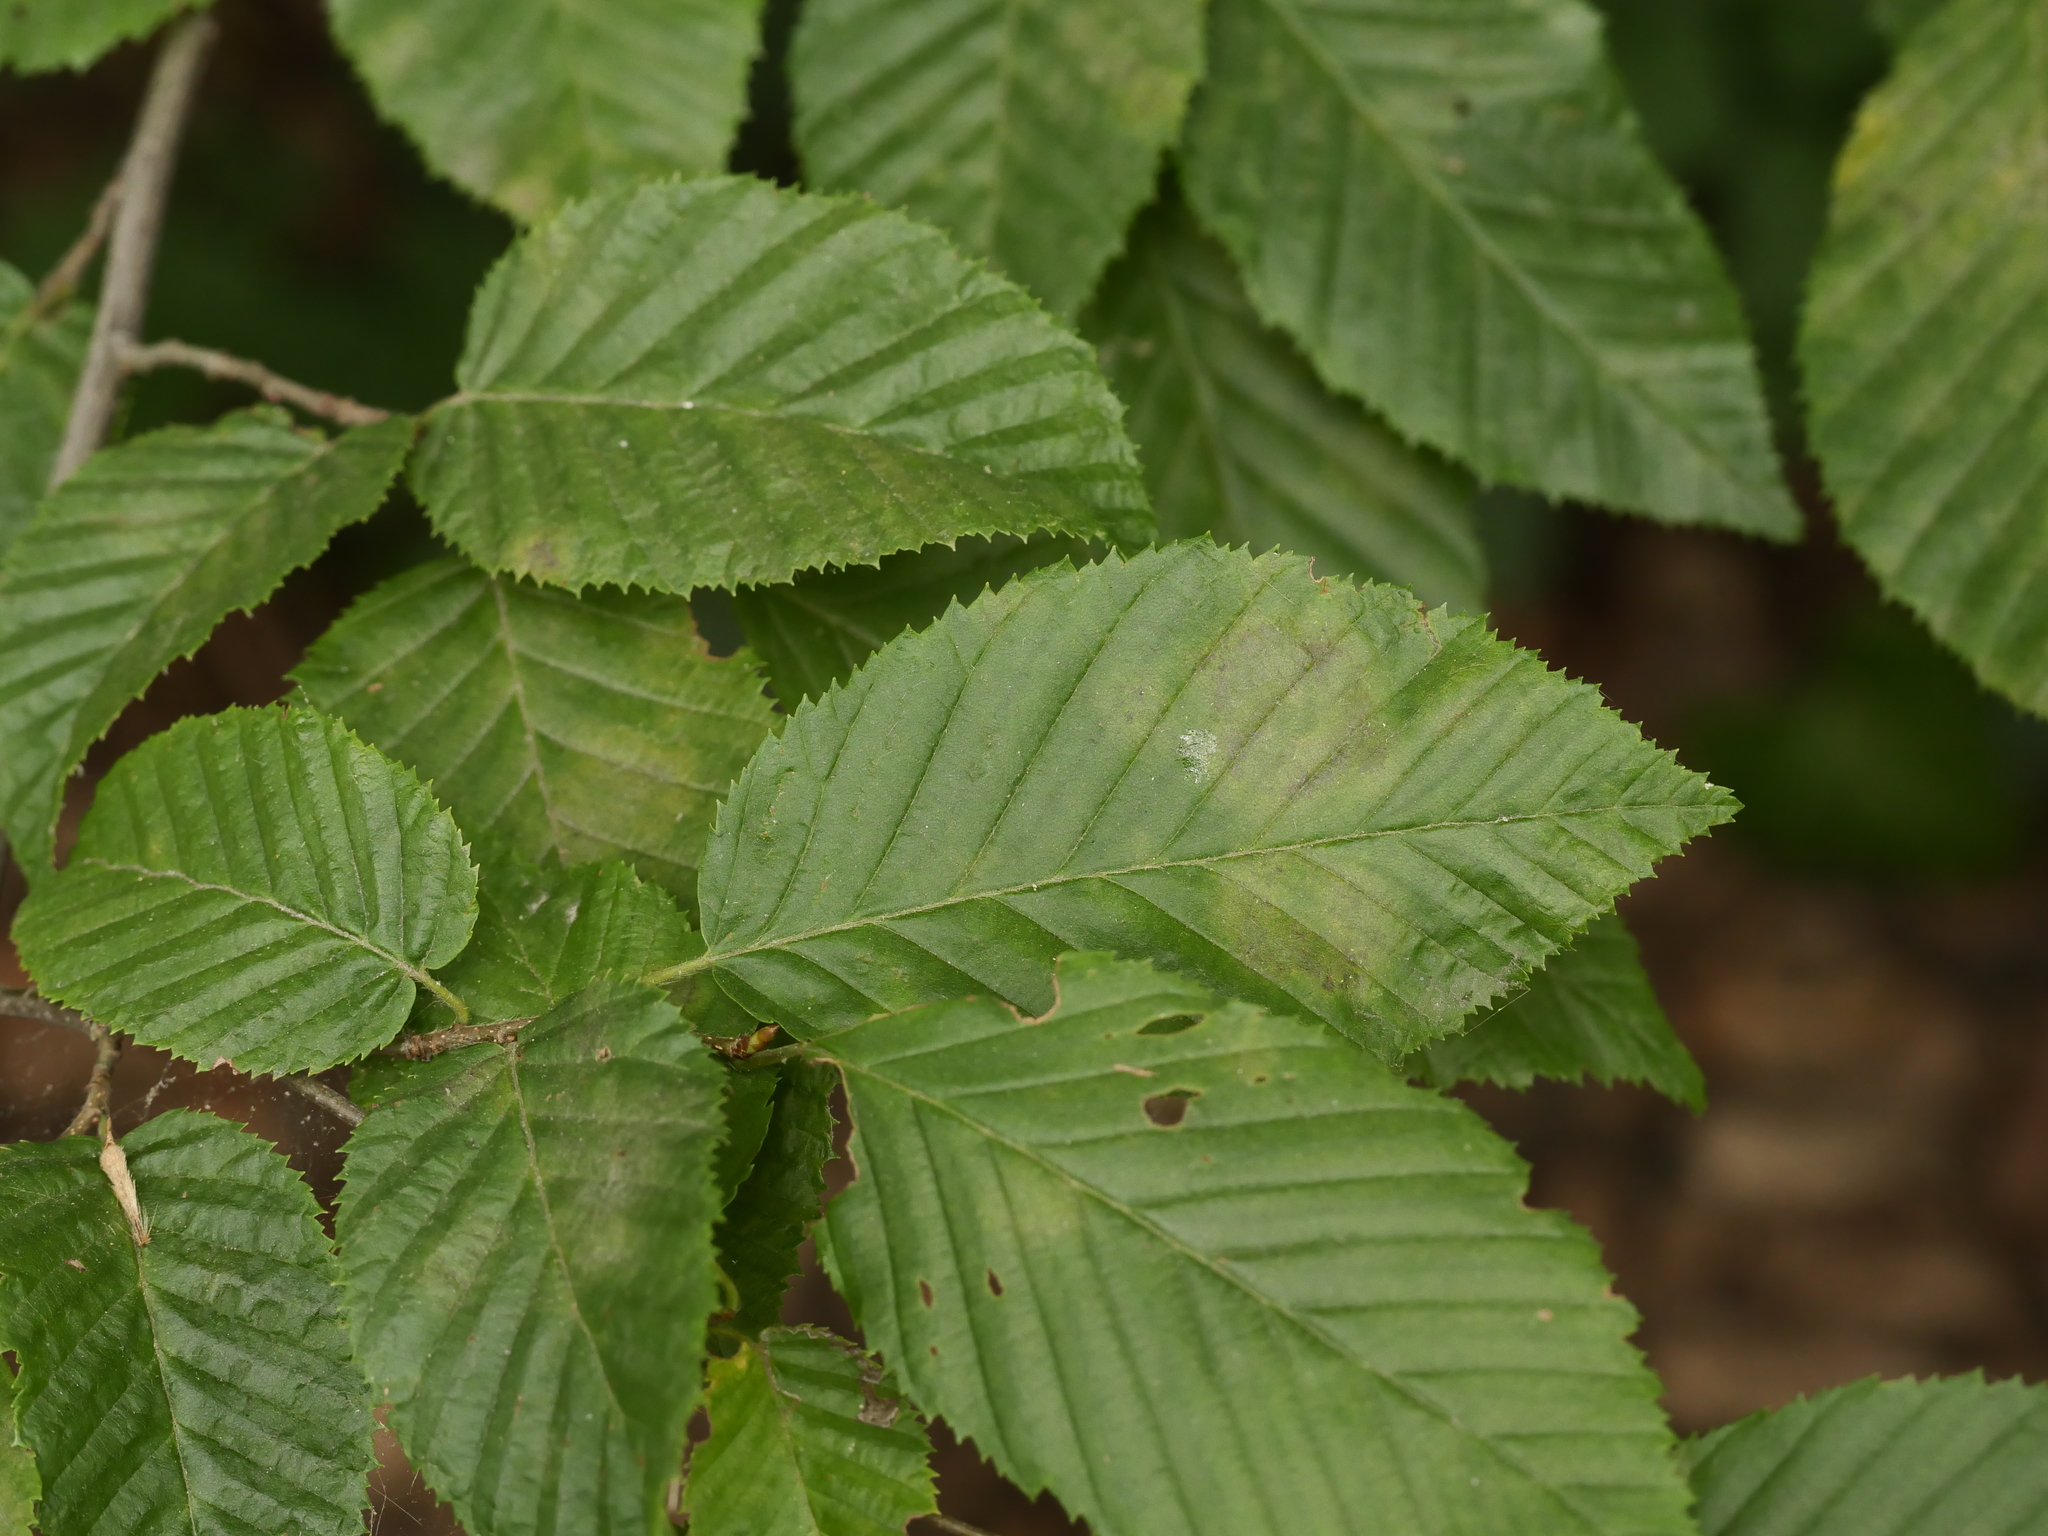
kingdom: Plantae
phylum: Tracheophyta
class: Magnoliopsida
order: Fagales
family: Betulaceae
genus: Carpinus
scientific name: Carpinus betulus
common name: Hornbeam
